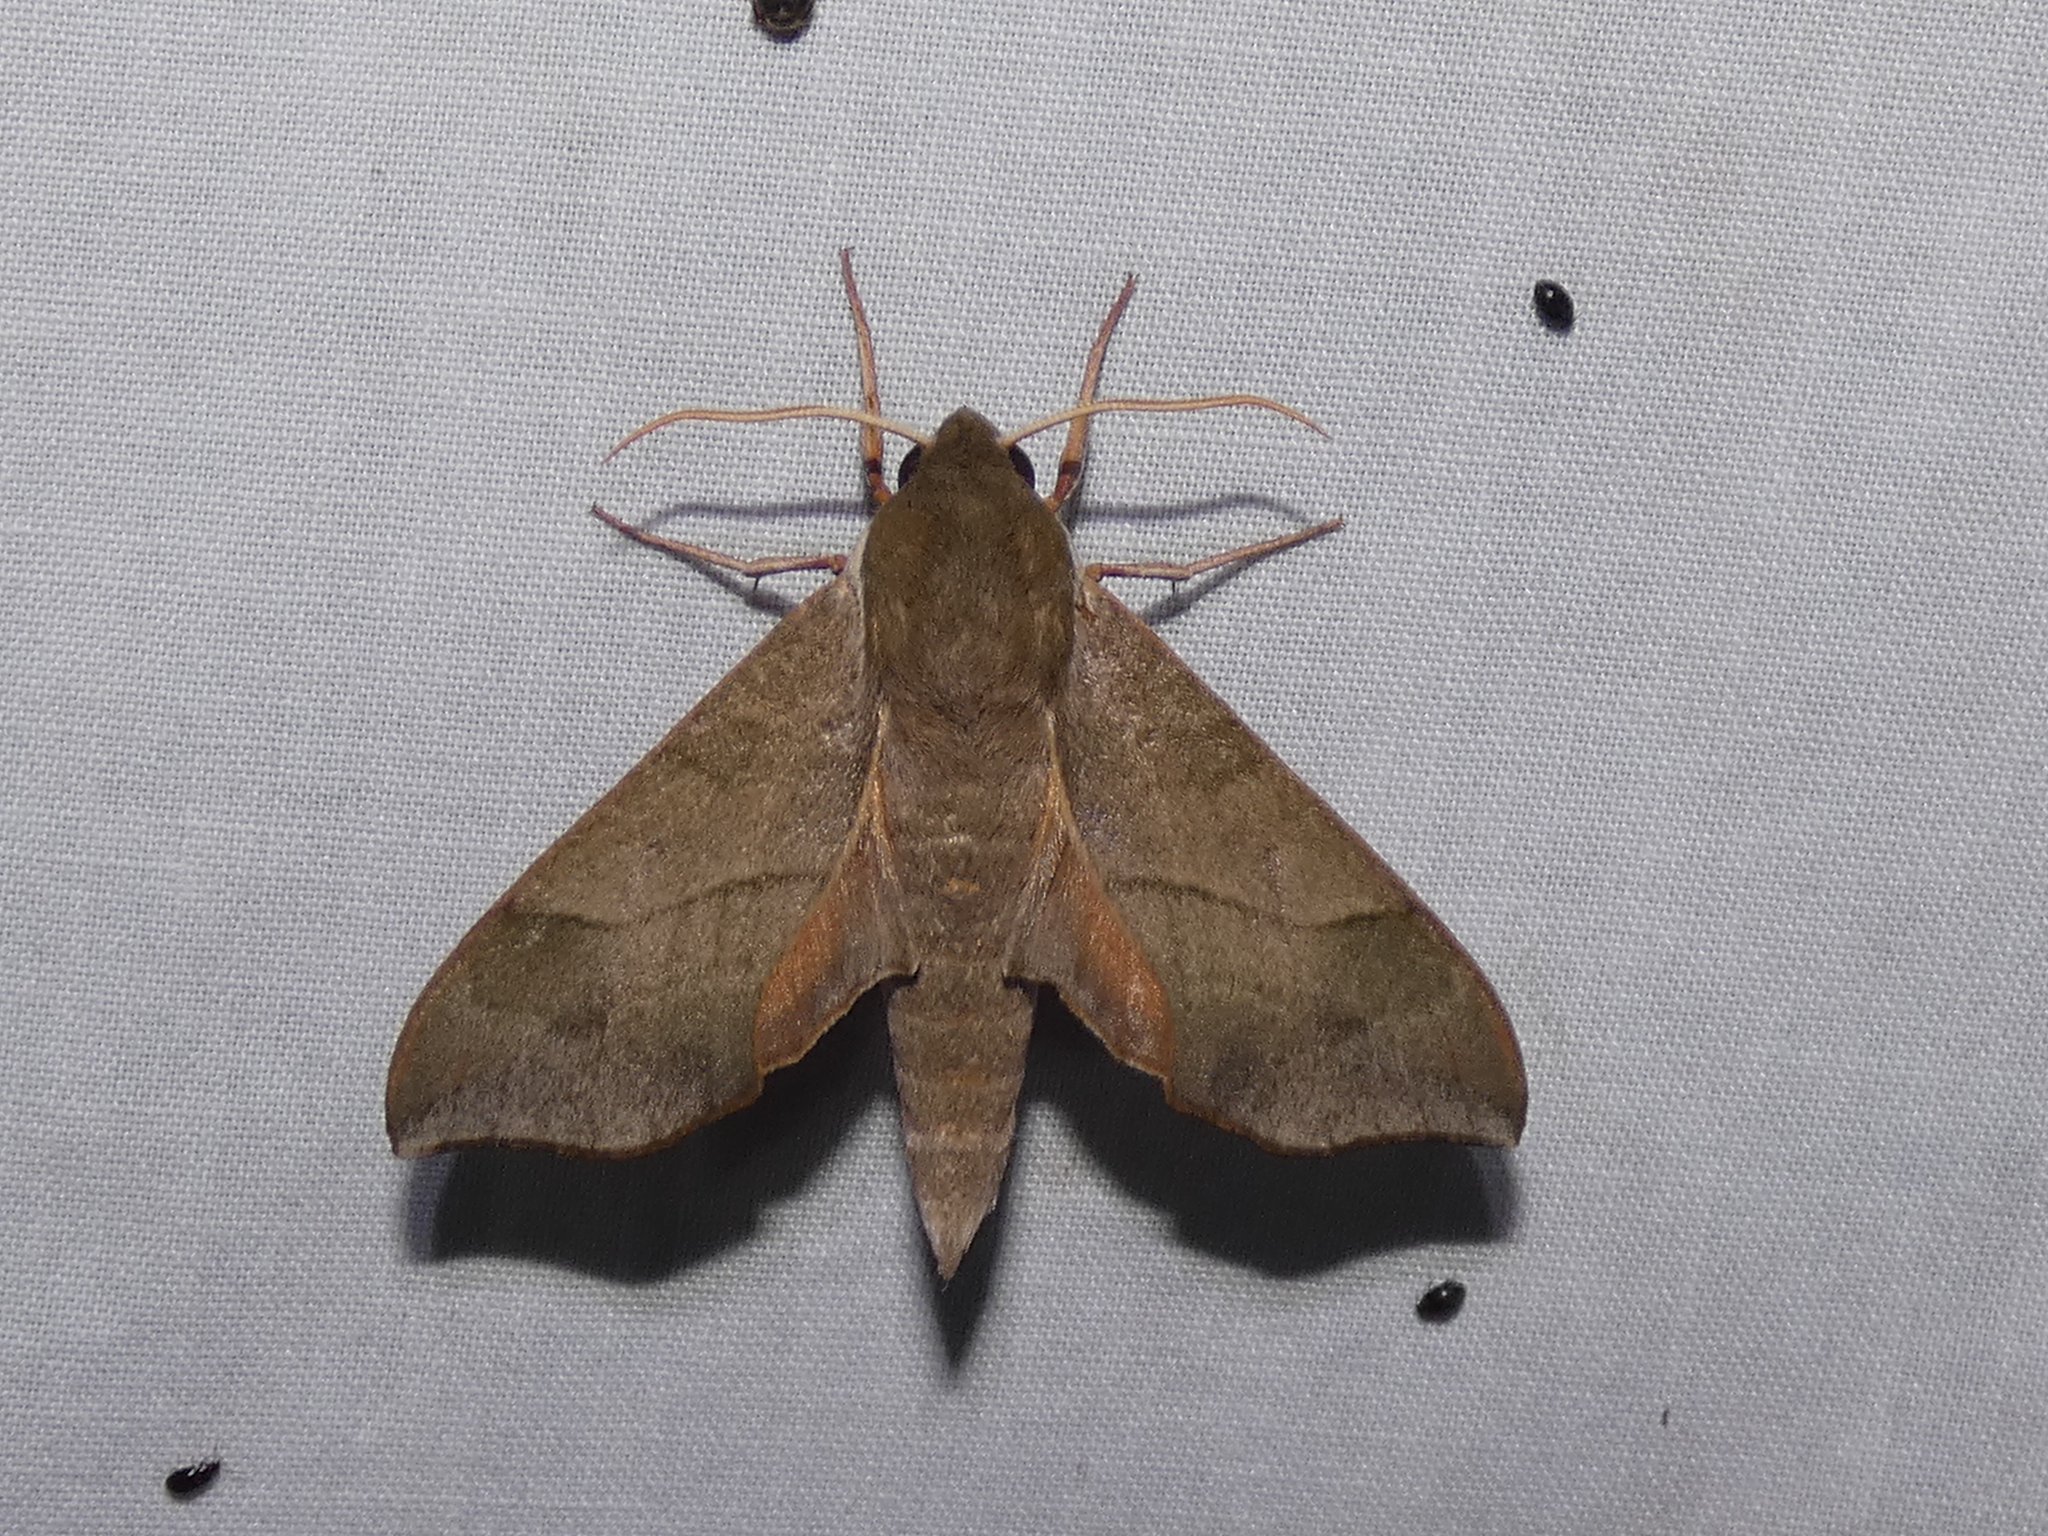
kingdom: Animalia
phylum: Arthropoda
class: Insecta
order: Lepidoptera
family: Sphingidae
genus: Darapsa
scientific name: Darapsa myron
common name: Hog sphinx
